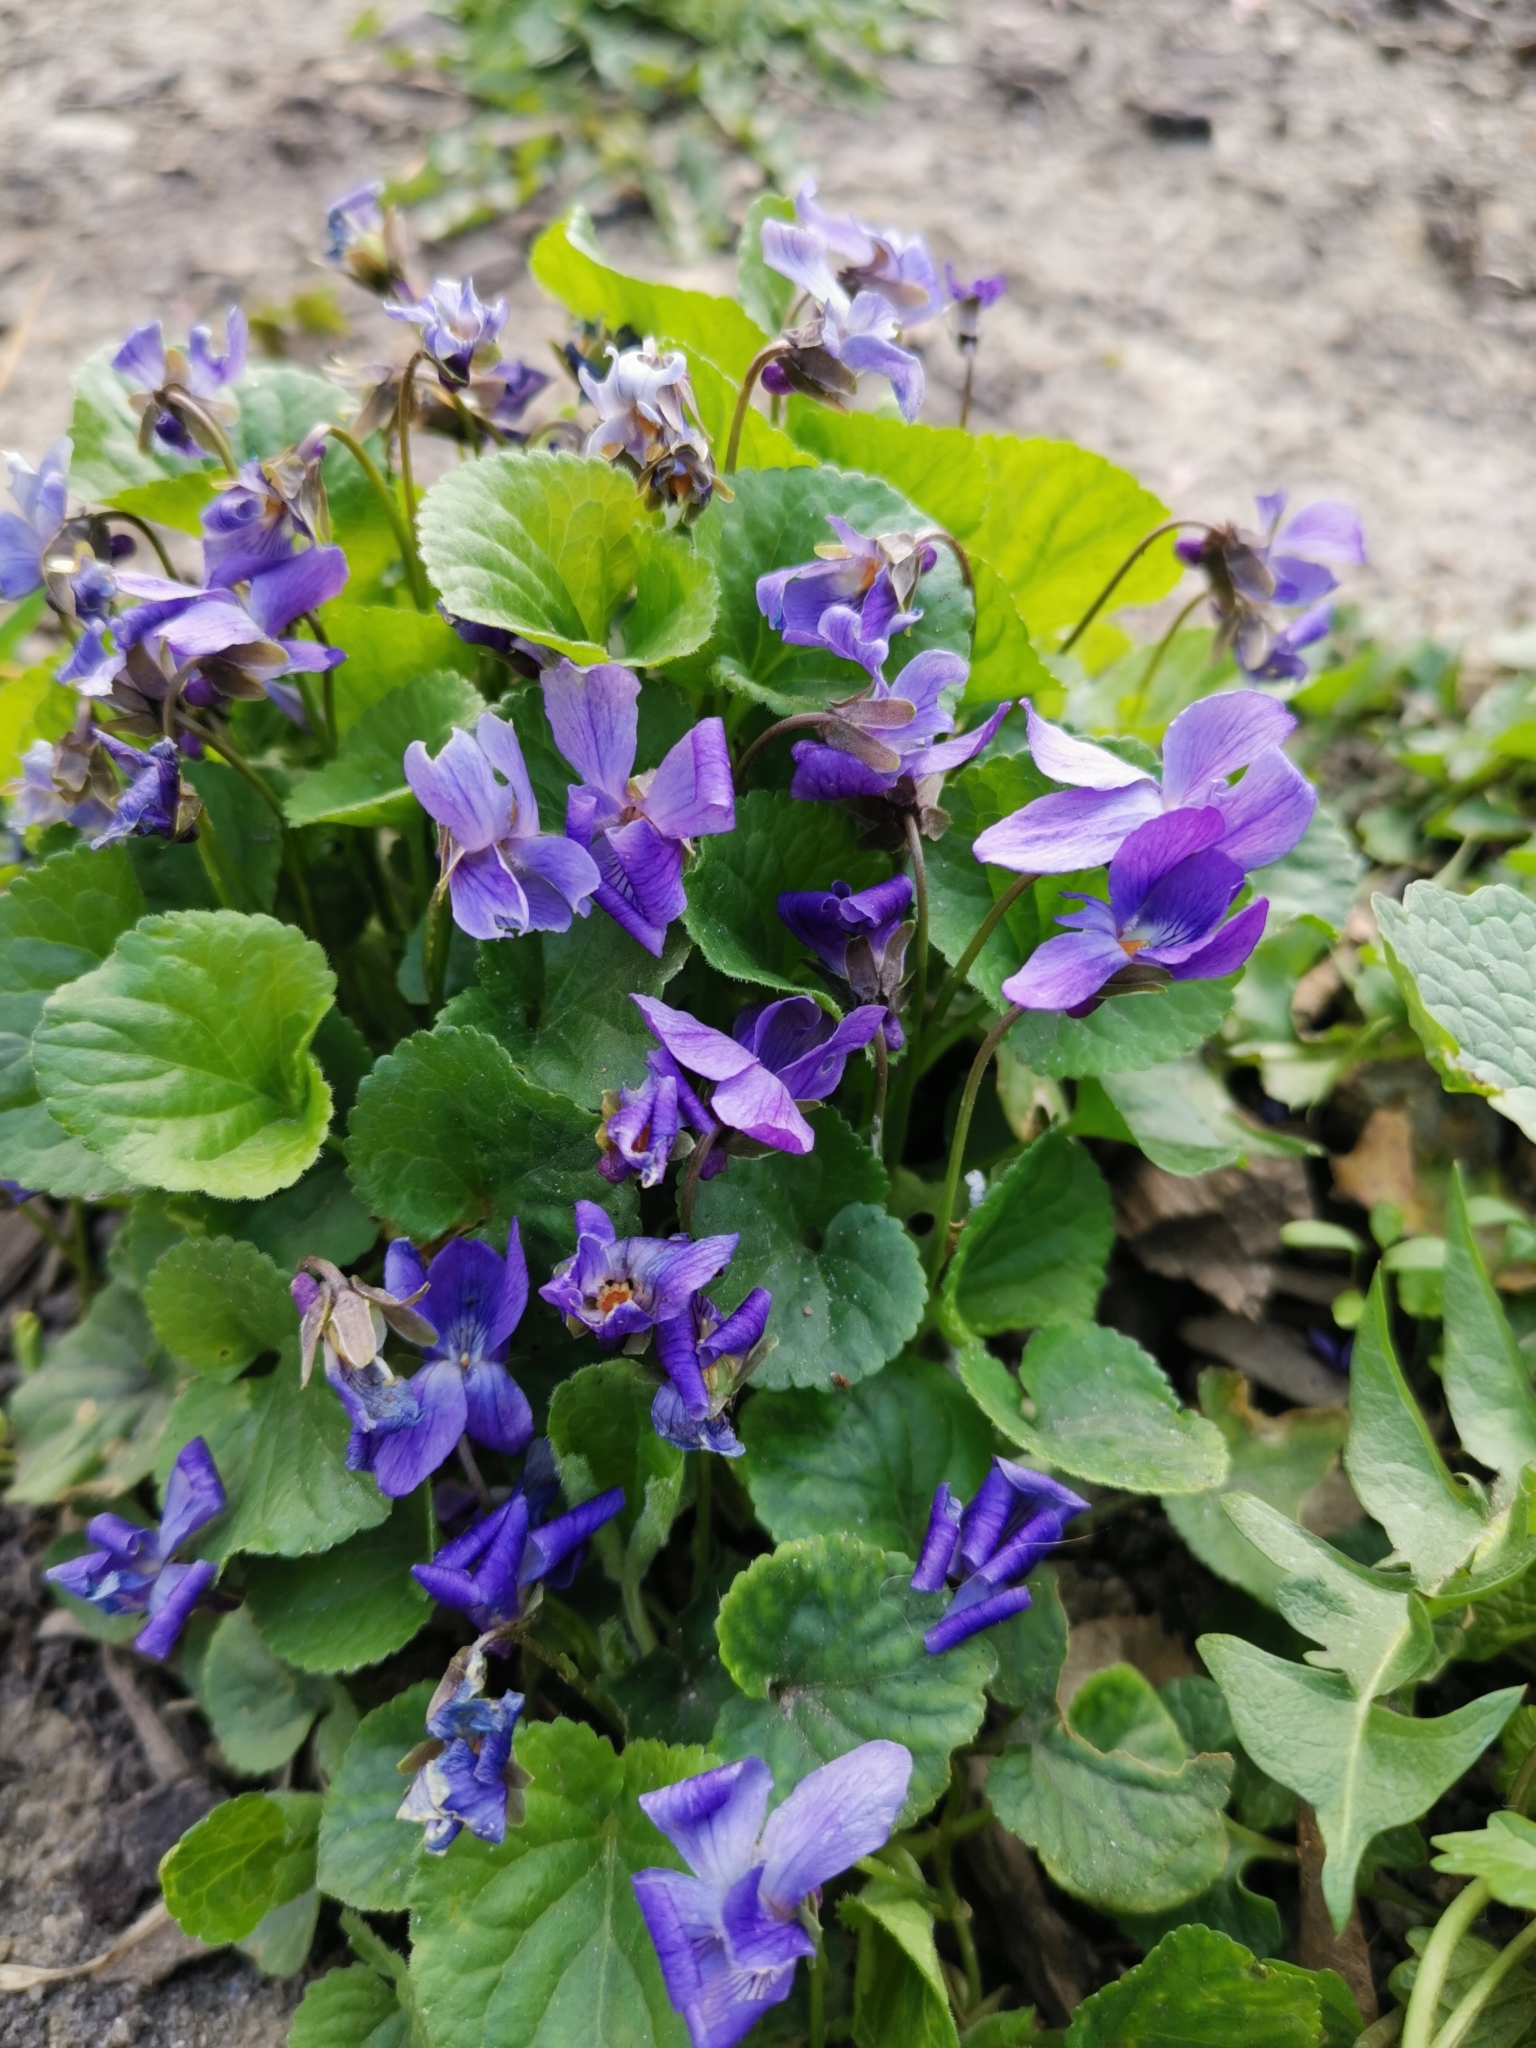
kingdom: Plantae
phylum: Tracheophyta
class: Magnoliopsida
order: Malpighiales
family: Violaceae
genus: Viola
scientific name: Viola odorata
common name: Sweet violet
